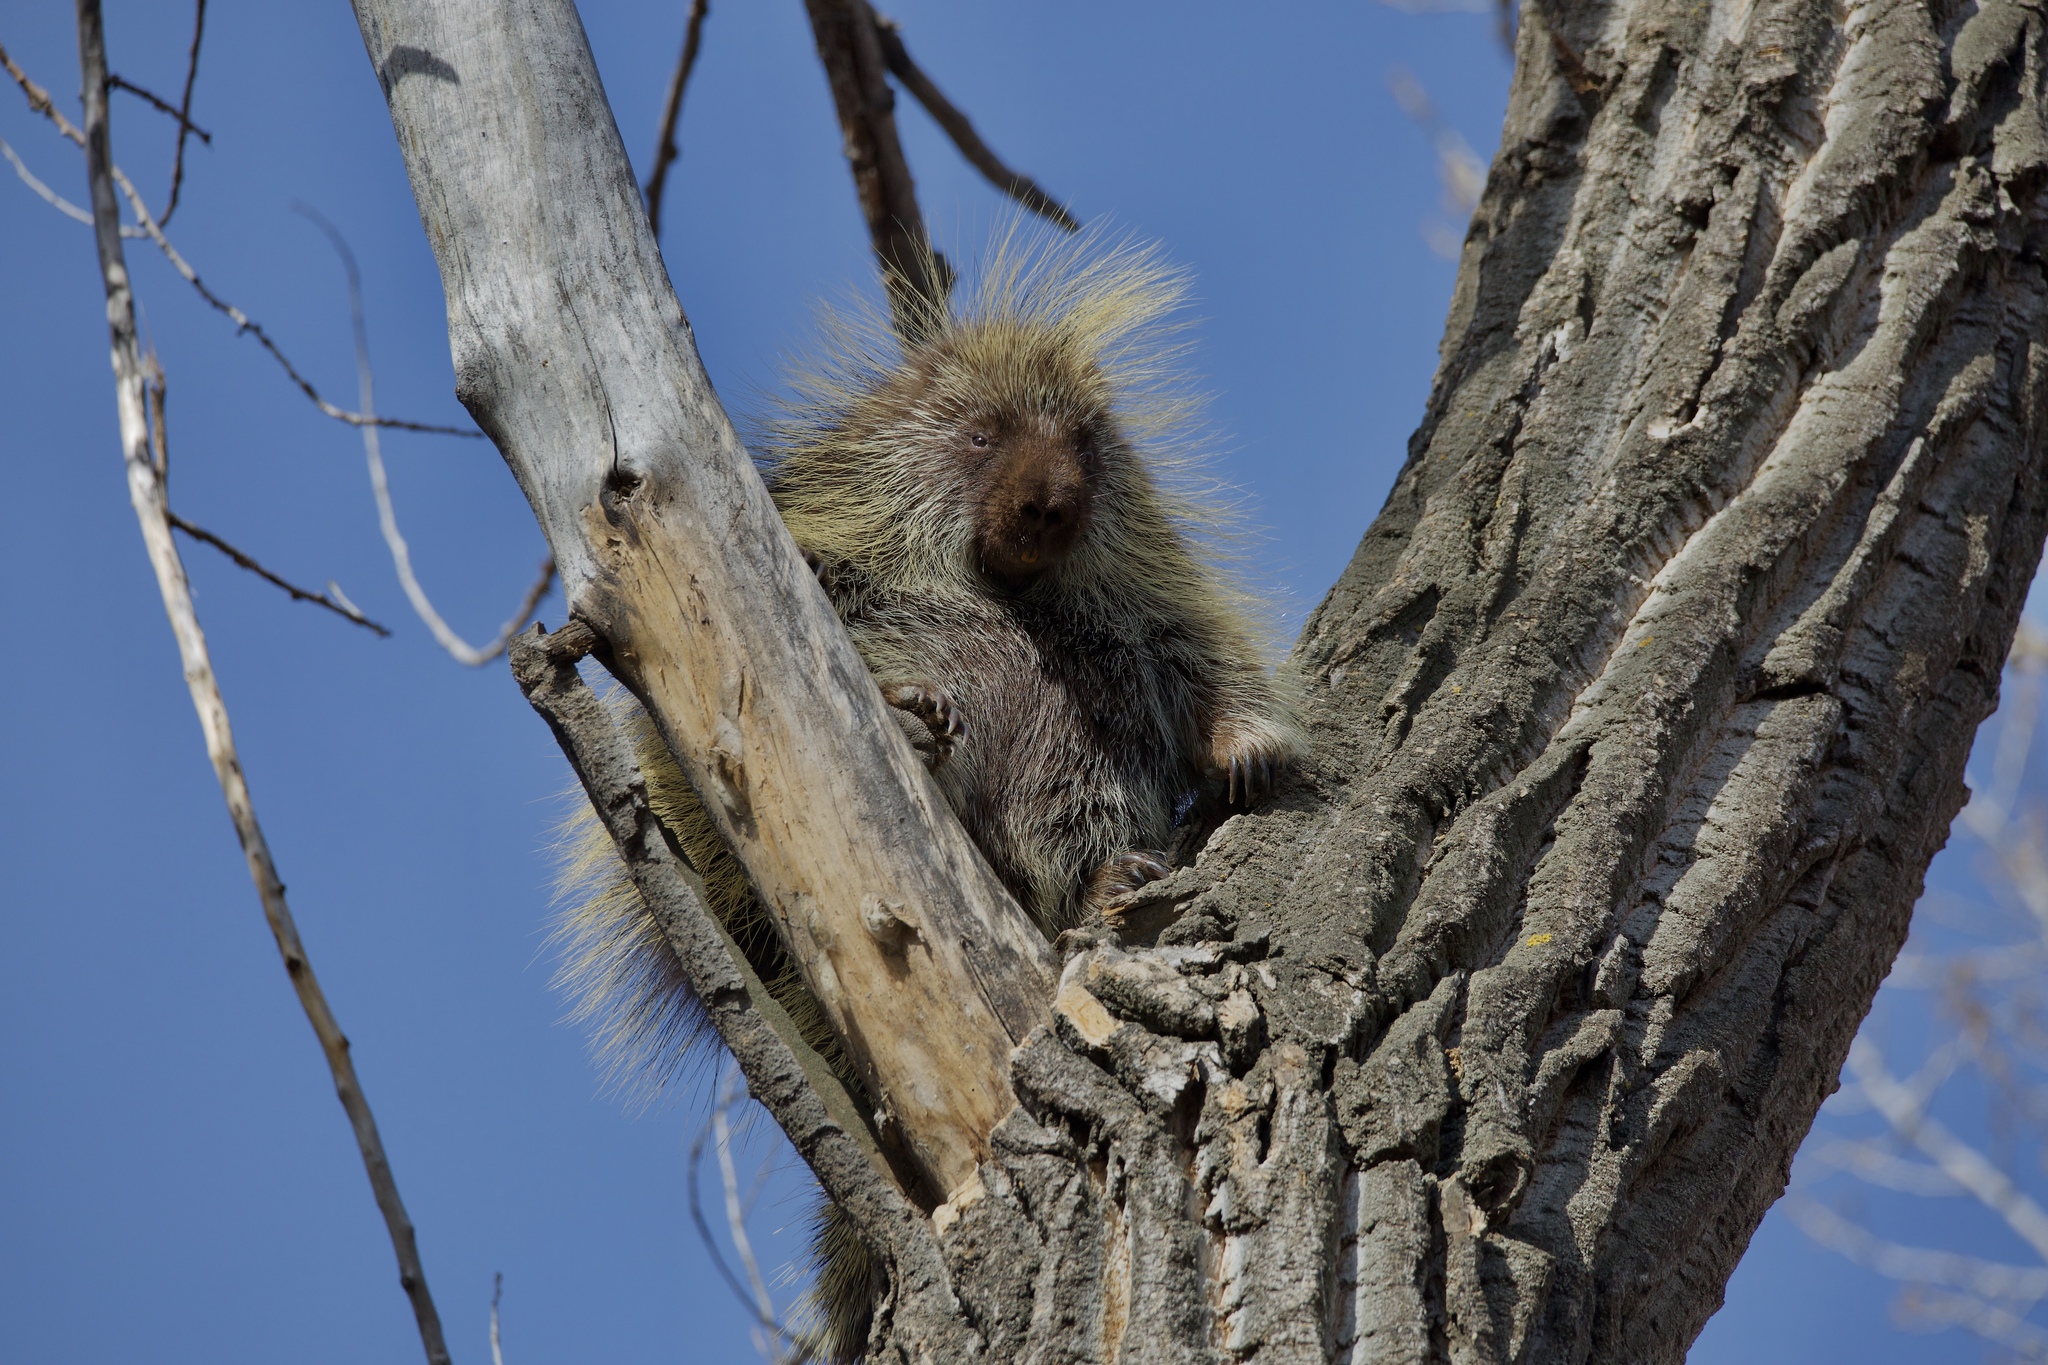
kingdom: Animalia
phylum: Chordata
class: Mammalia
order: Rodentia
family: Erethizontidae
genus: Erethizon
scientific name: Erethizon dorsatus
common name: North american porcupine
